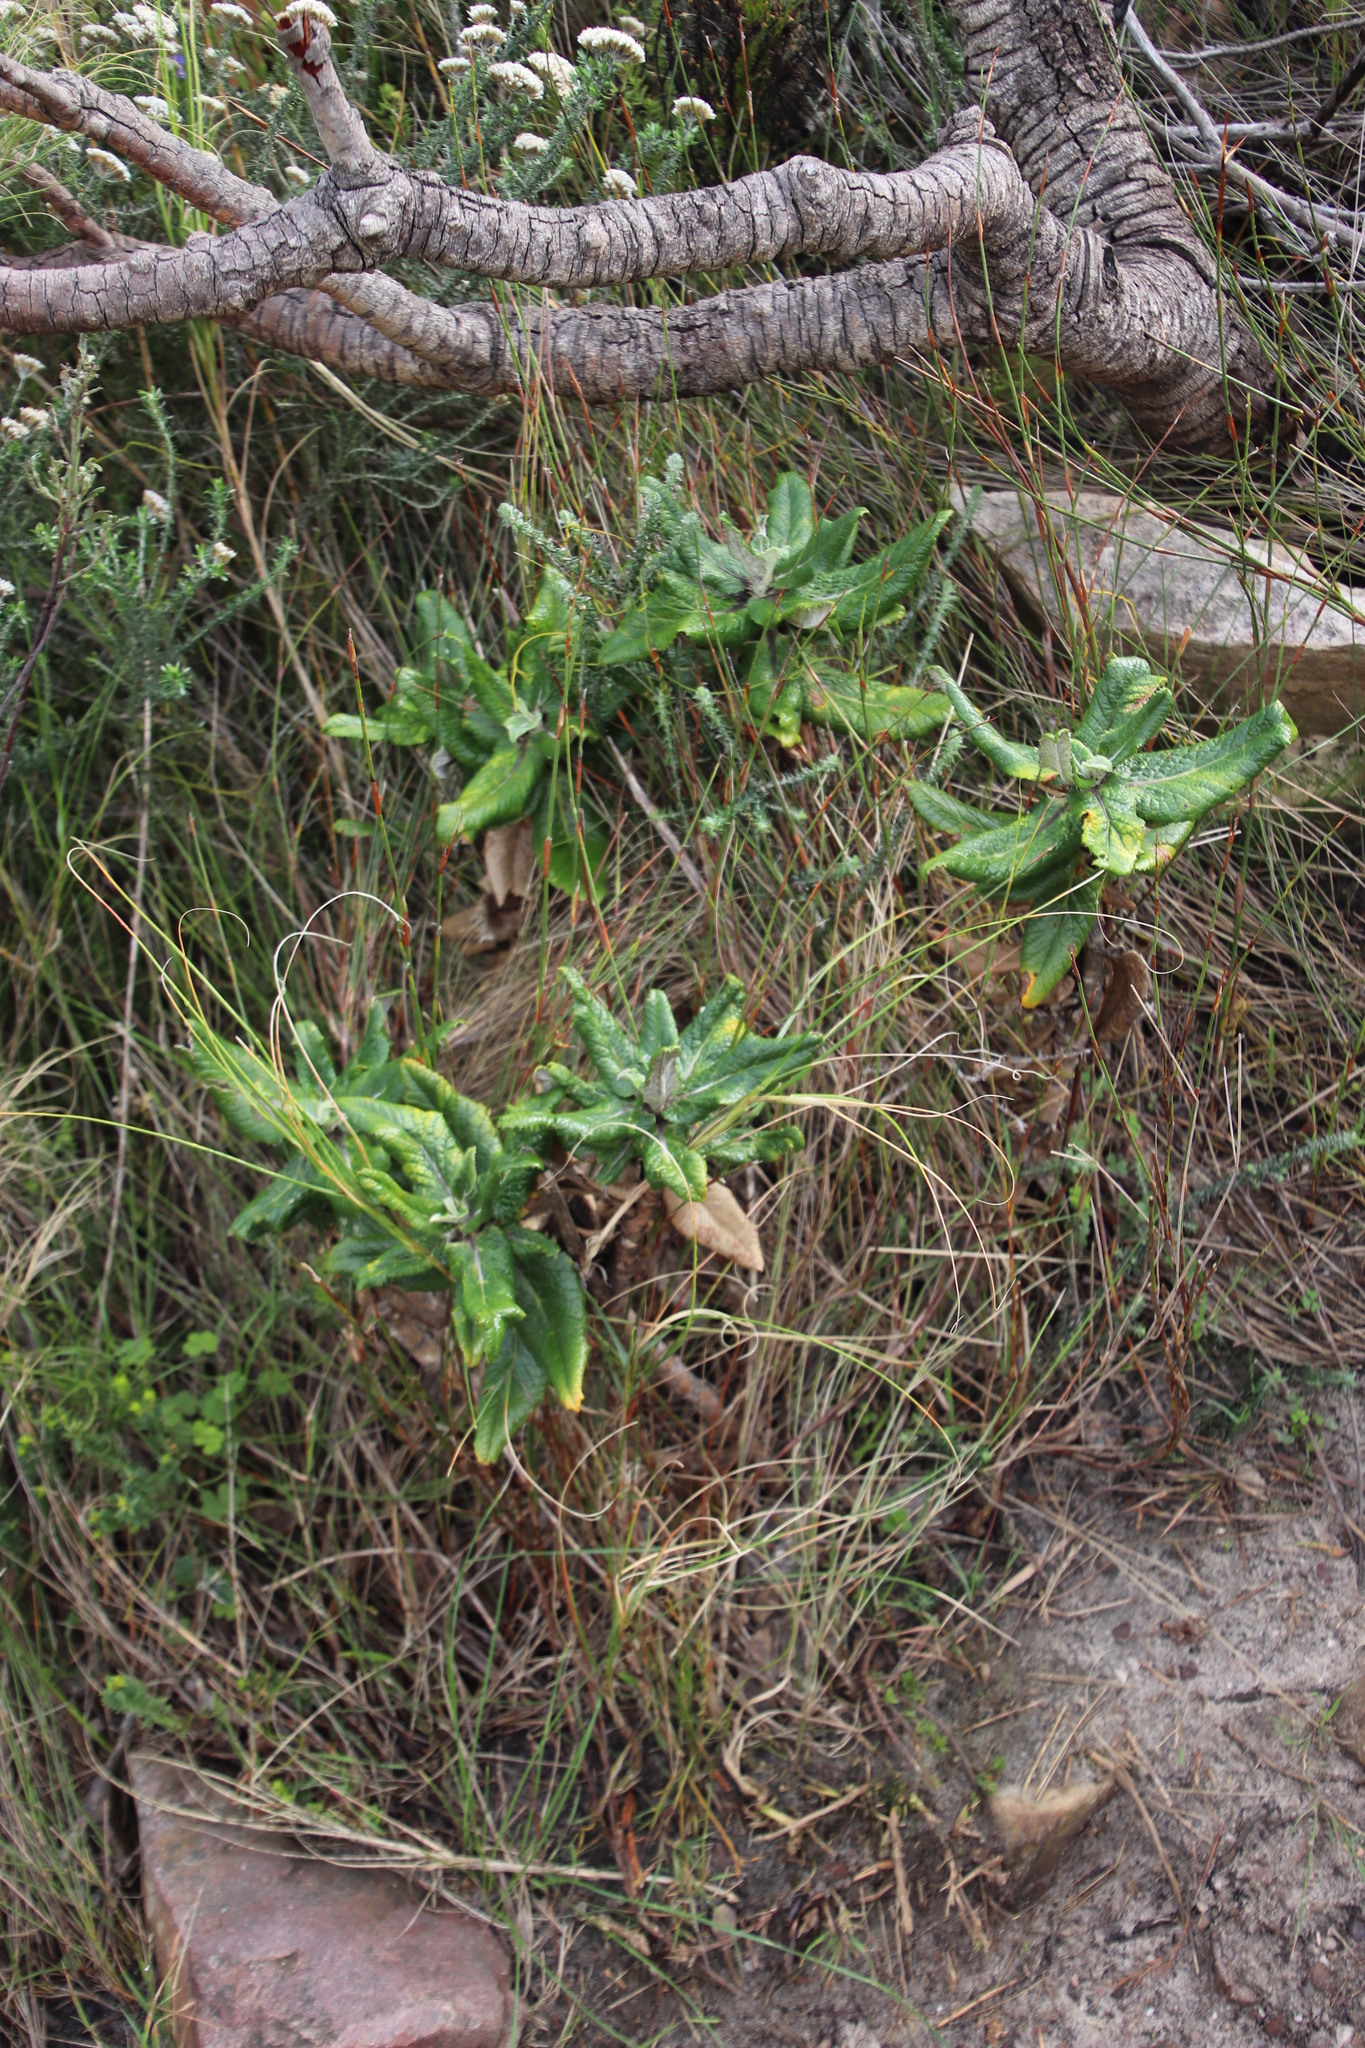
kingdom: Plantae
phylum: Tracheophyta
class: Magnoliopsida
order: Apiales
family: Apiaceae
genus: Hermas
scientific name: Hermas villosa
